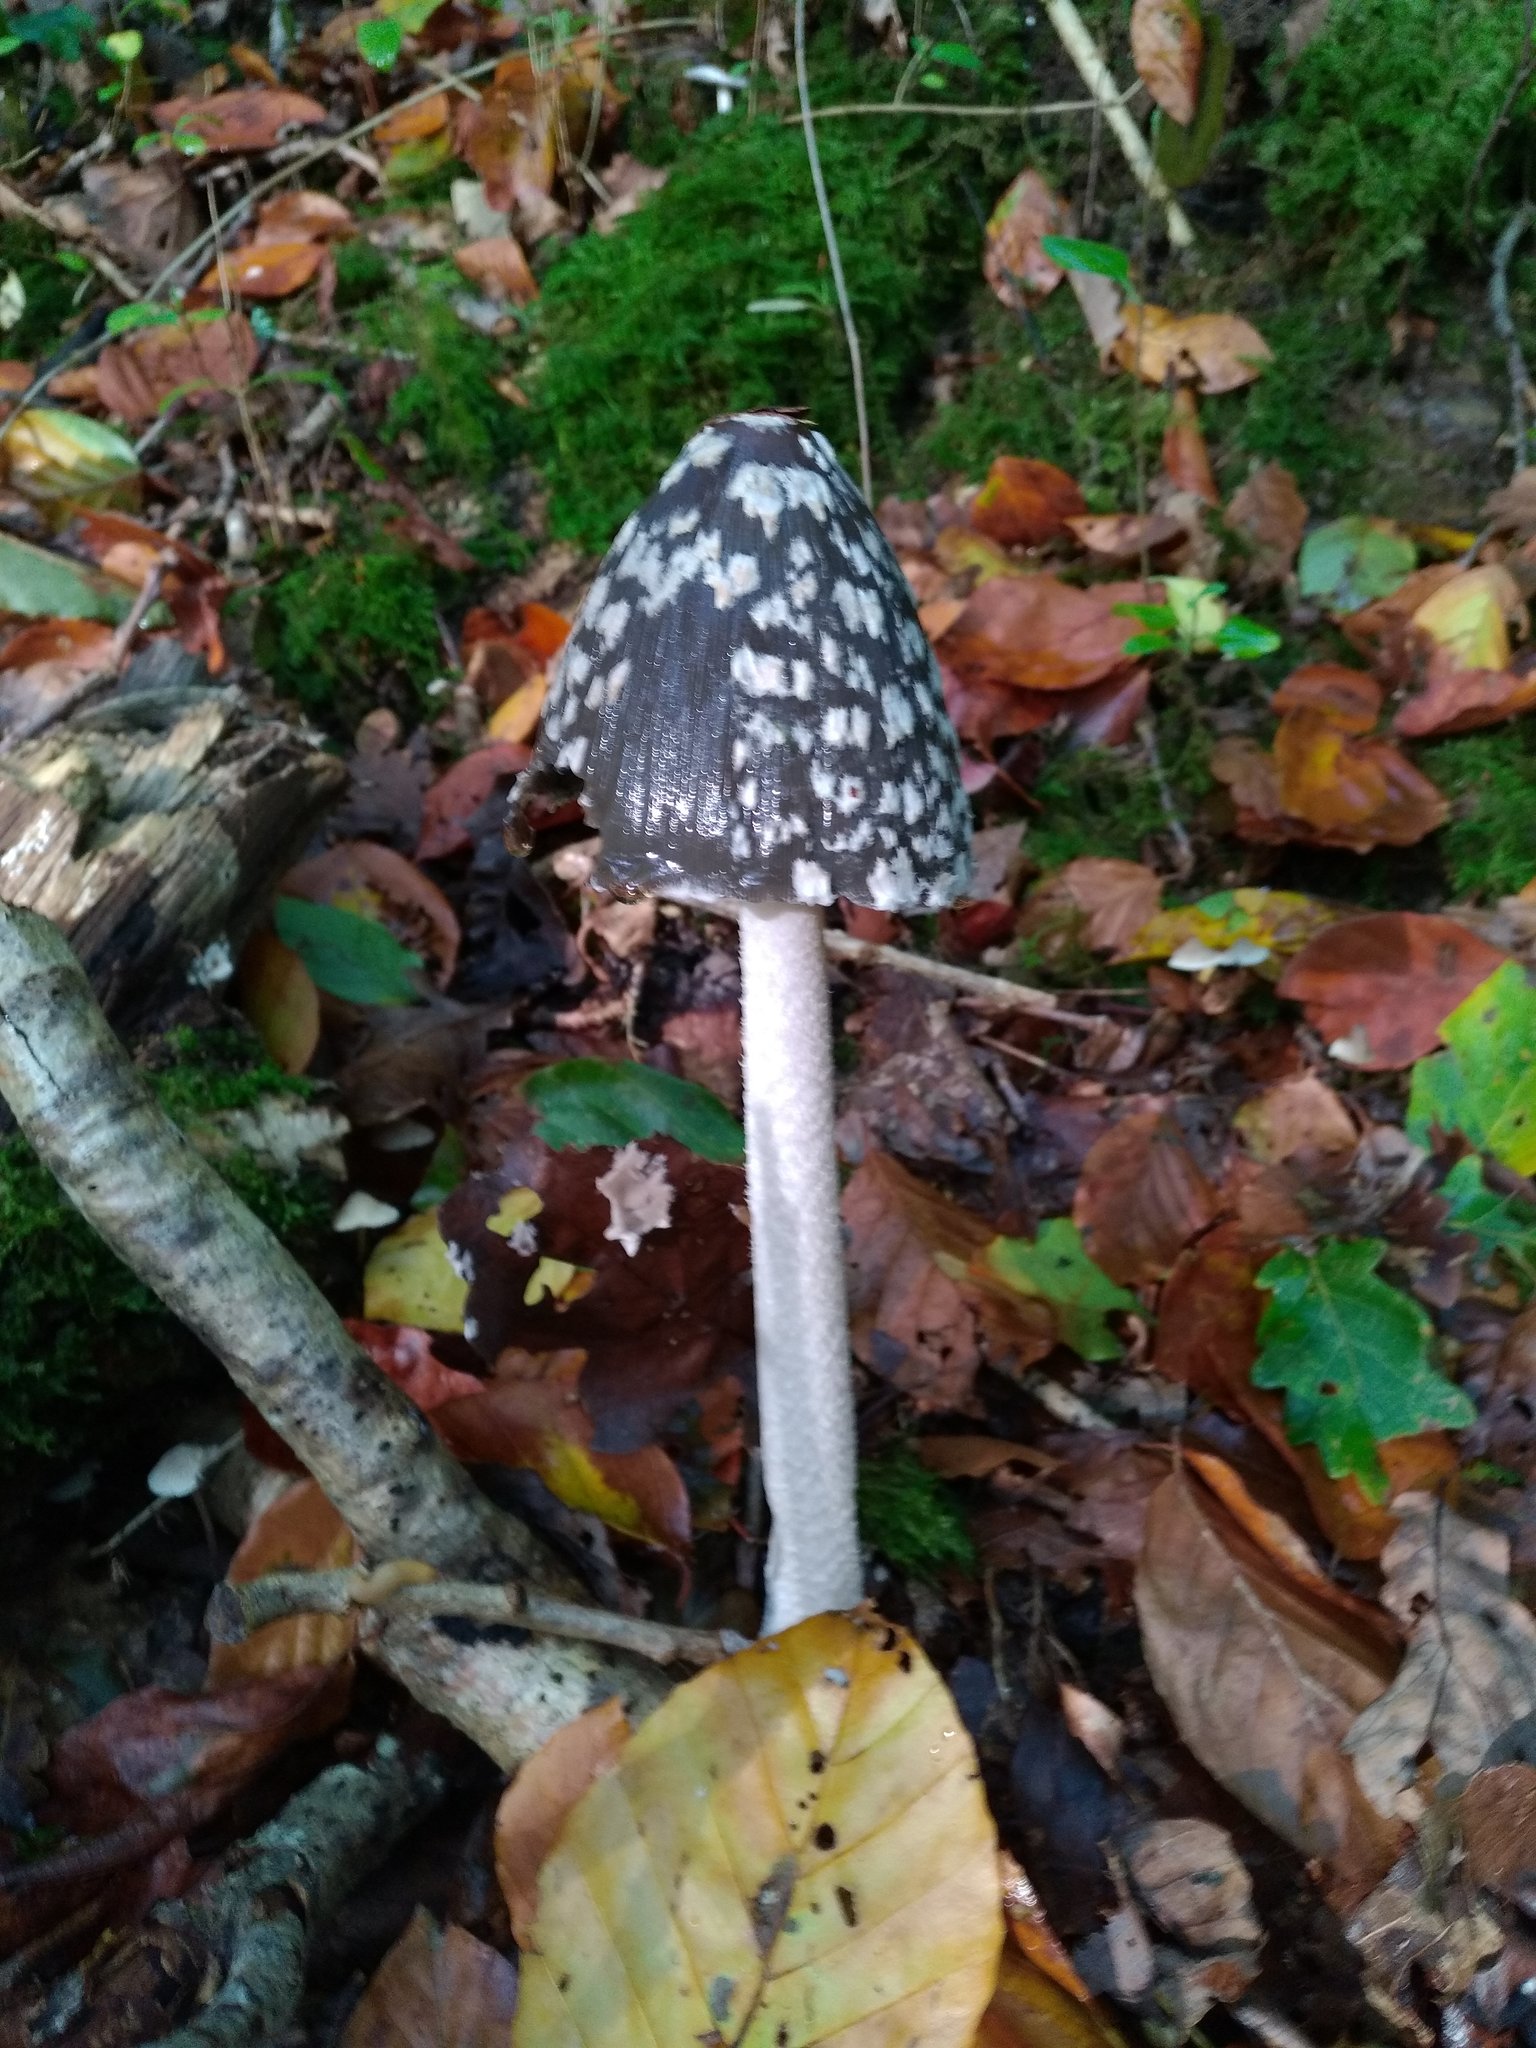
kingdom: Fungi
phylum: Basidiomycota
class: Agaricomycetes
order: Agaricales
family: Psathyrellaceae
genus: Coprinopsis
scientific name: Coprinopsis picacea
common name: Magpie inkcap
